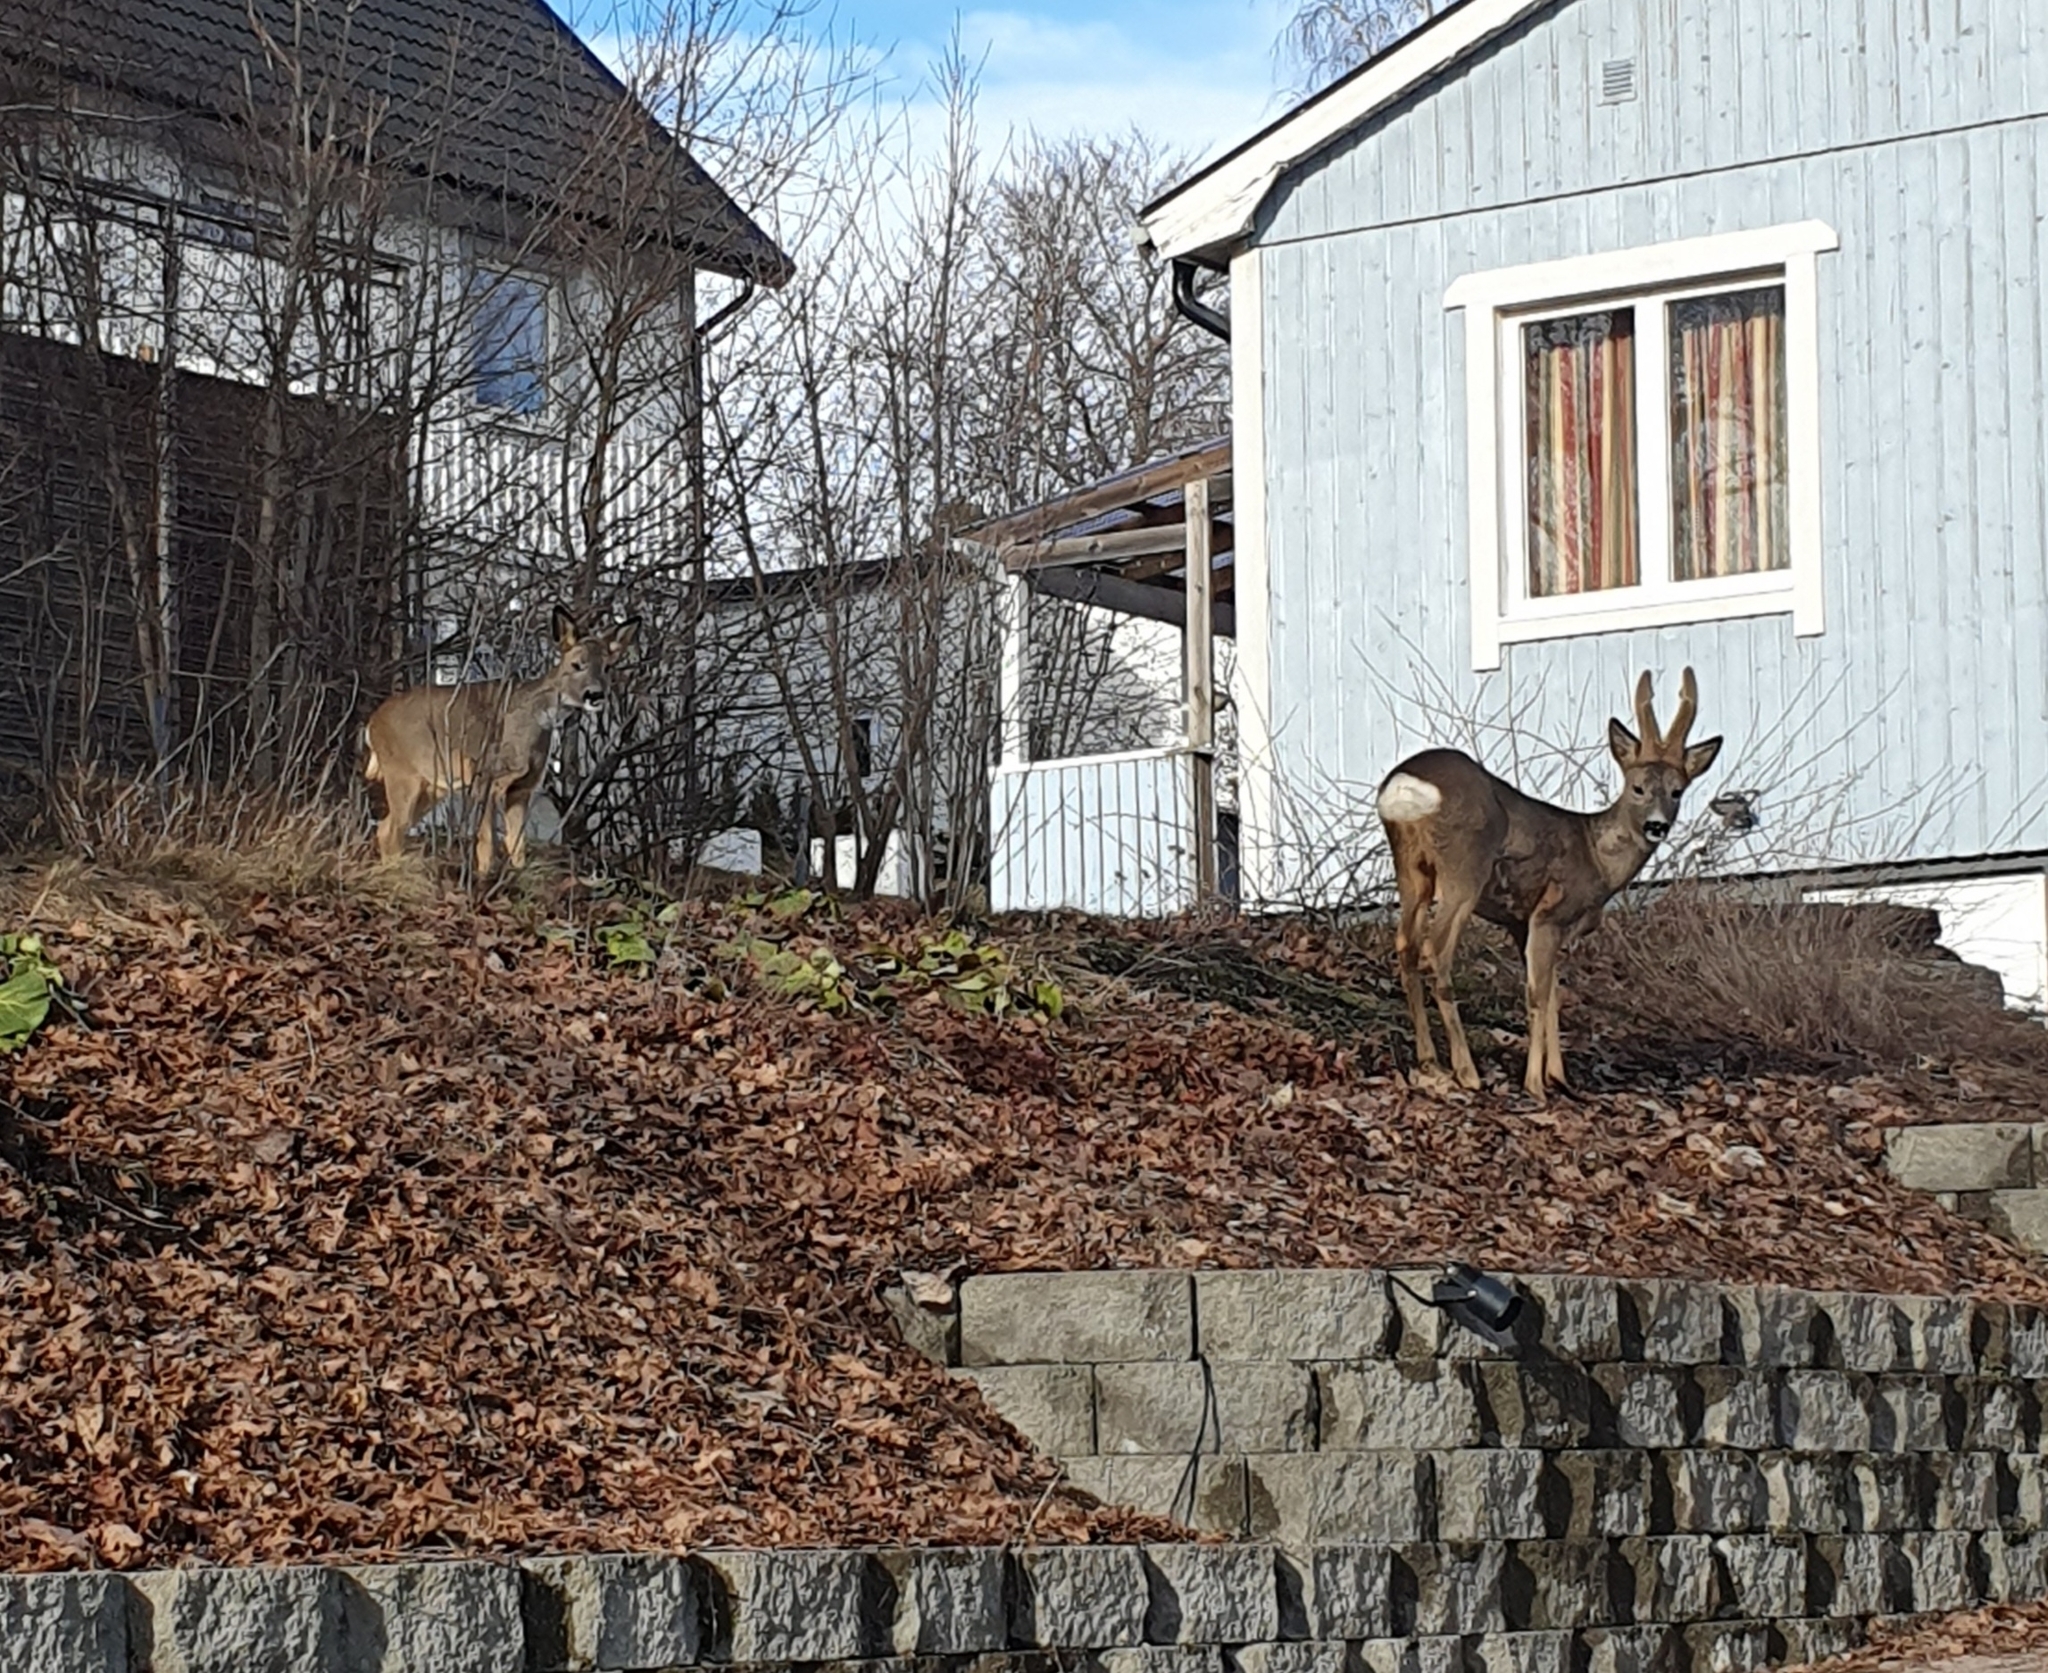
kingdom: Animalia
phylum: Chordata
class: Mammalia
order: Artiodactyla
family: Cervidae
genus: Capreolus
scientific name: Capreolus capreolus
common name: Western roe deer
